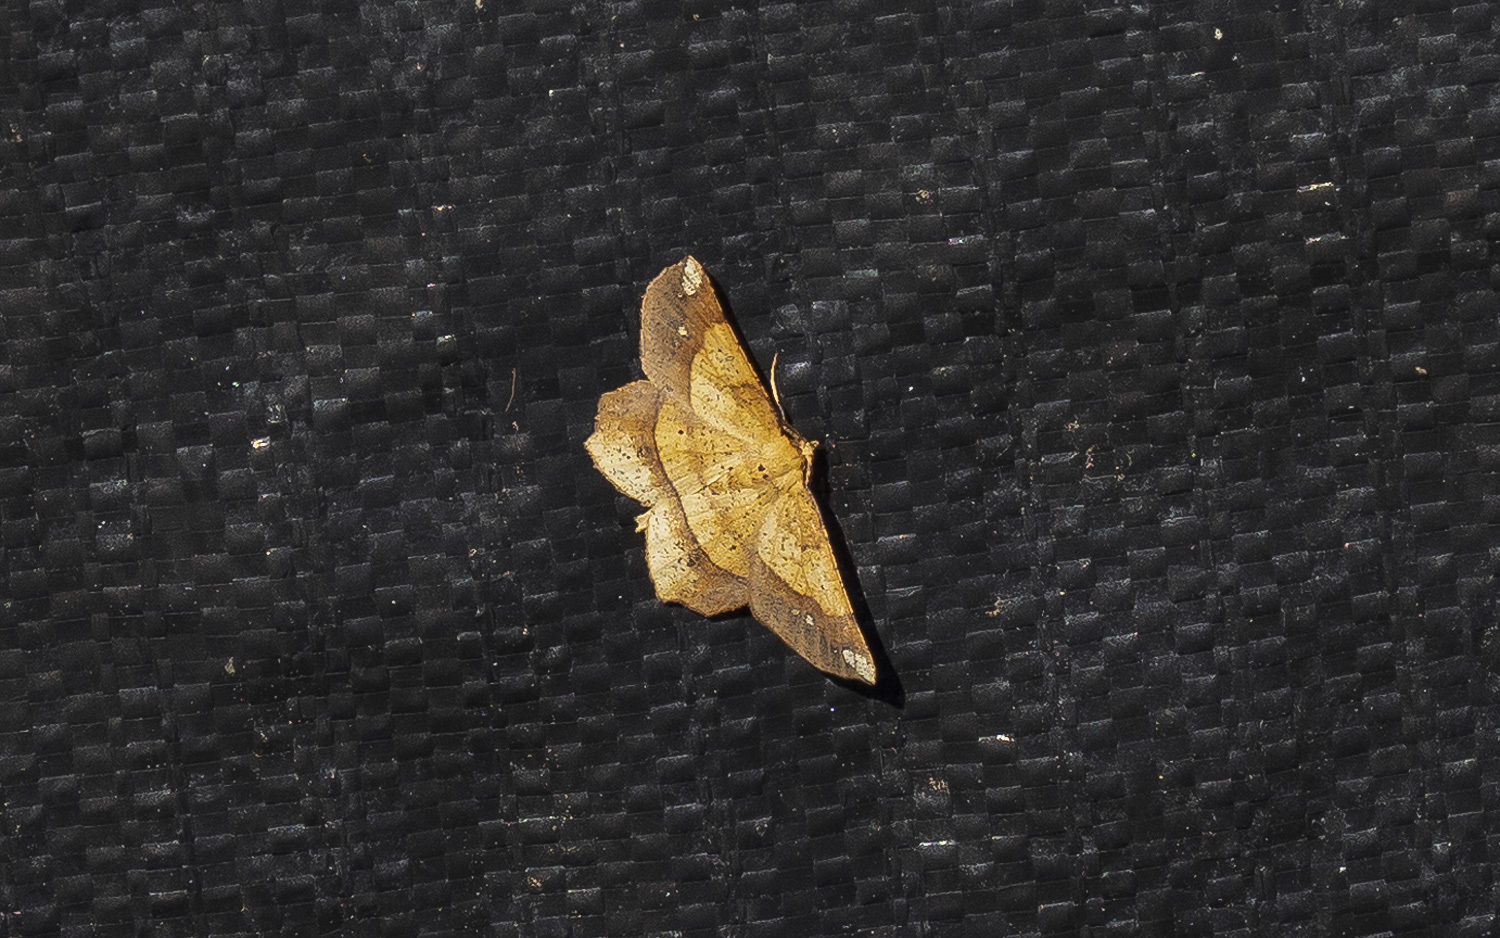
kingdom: Animalia
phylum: Arthropoda
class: Insecta
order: Lepidoptera
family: Geometridae
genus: Euchlaena
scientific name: Euchlaena amoenaria
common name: Deep yellow euchlaena
